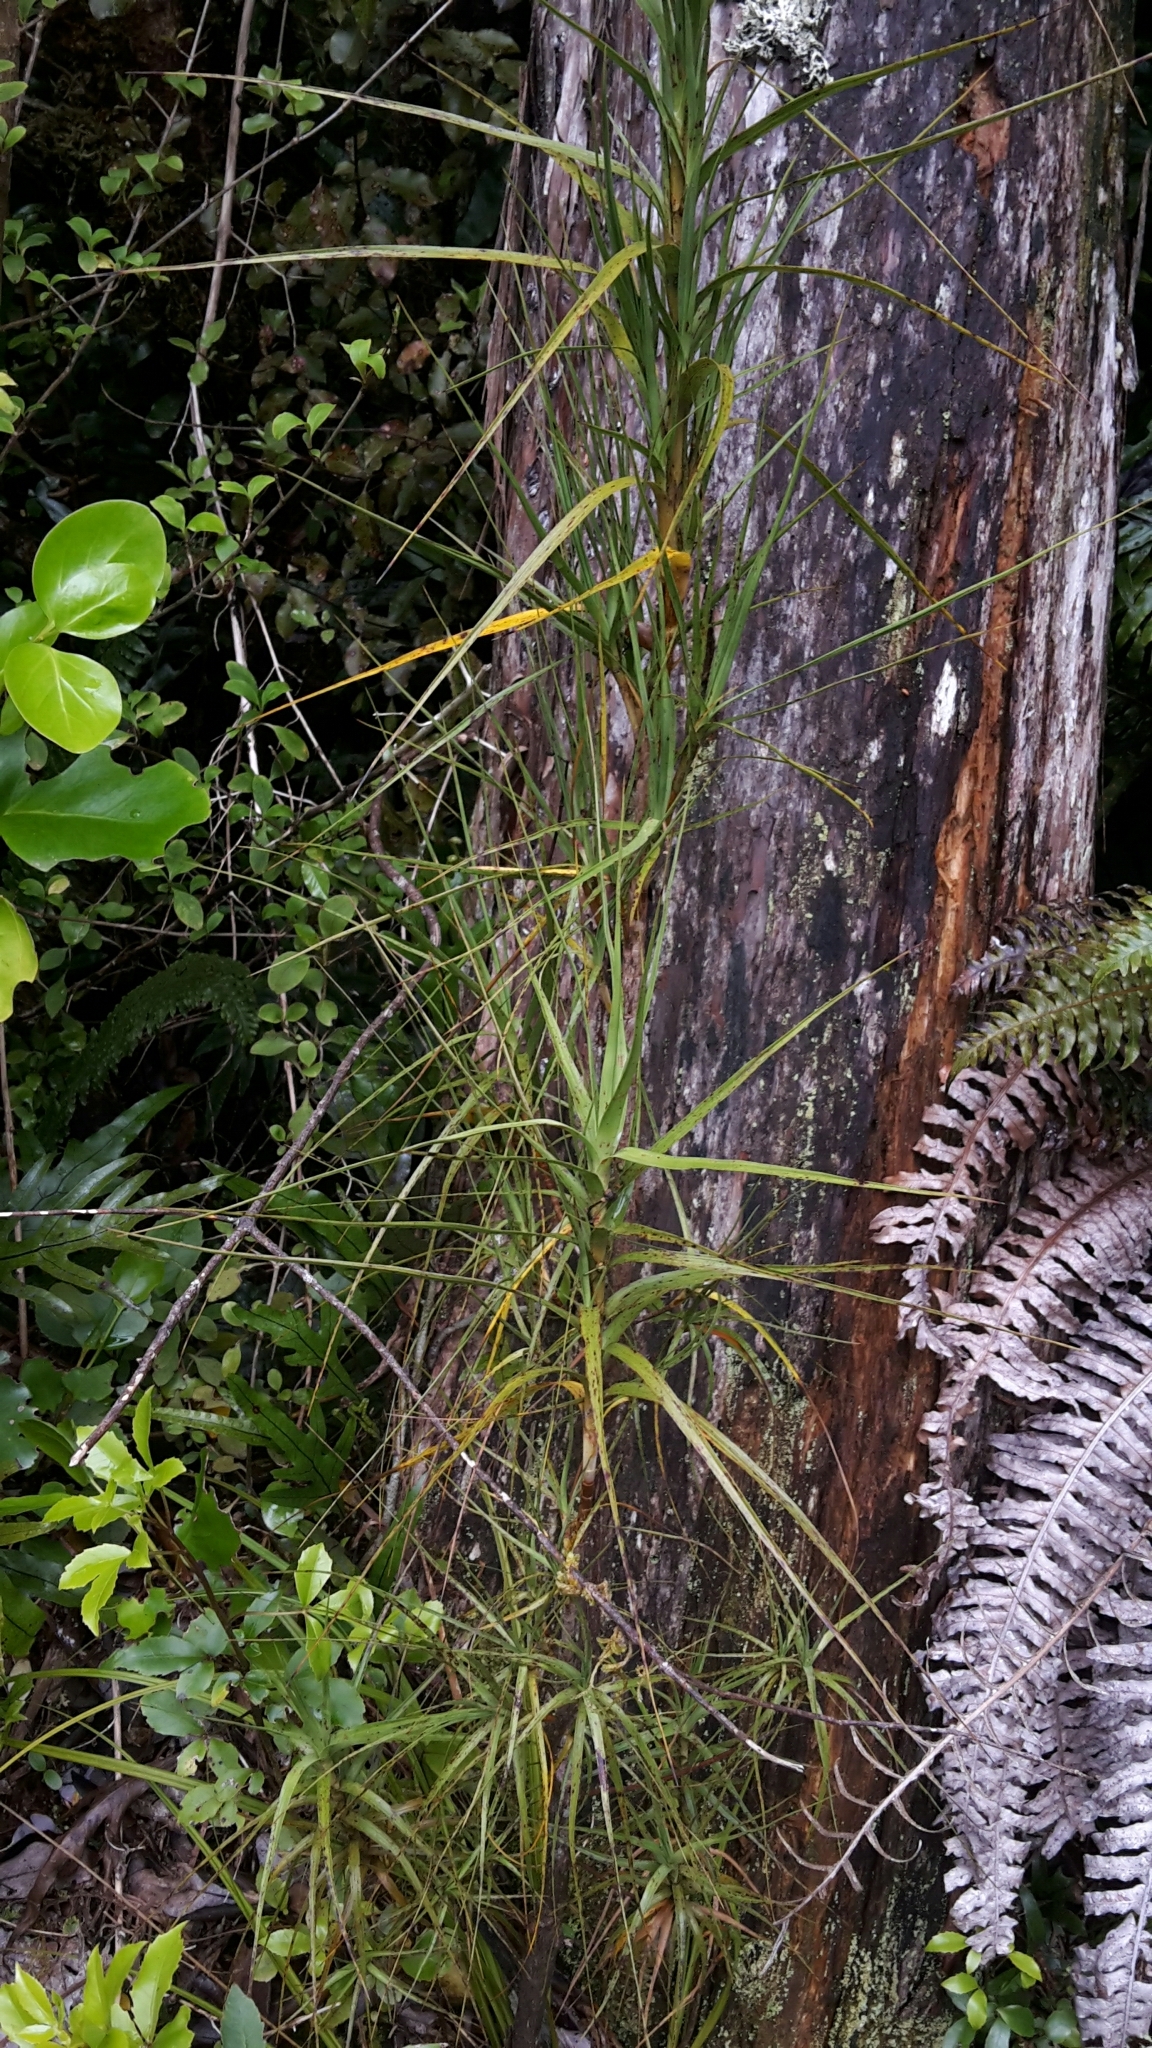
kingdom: Plantae
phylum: Tracheophyta
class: Magnoliopsida
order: Ericales
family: Ericaceae
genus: Dracophyllum
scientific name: Dracophyllum longifolium
